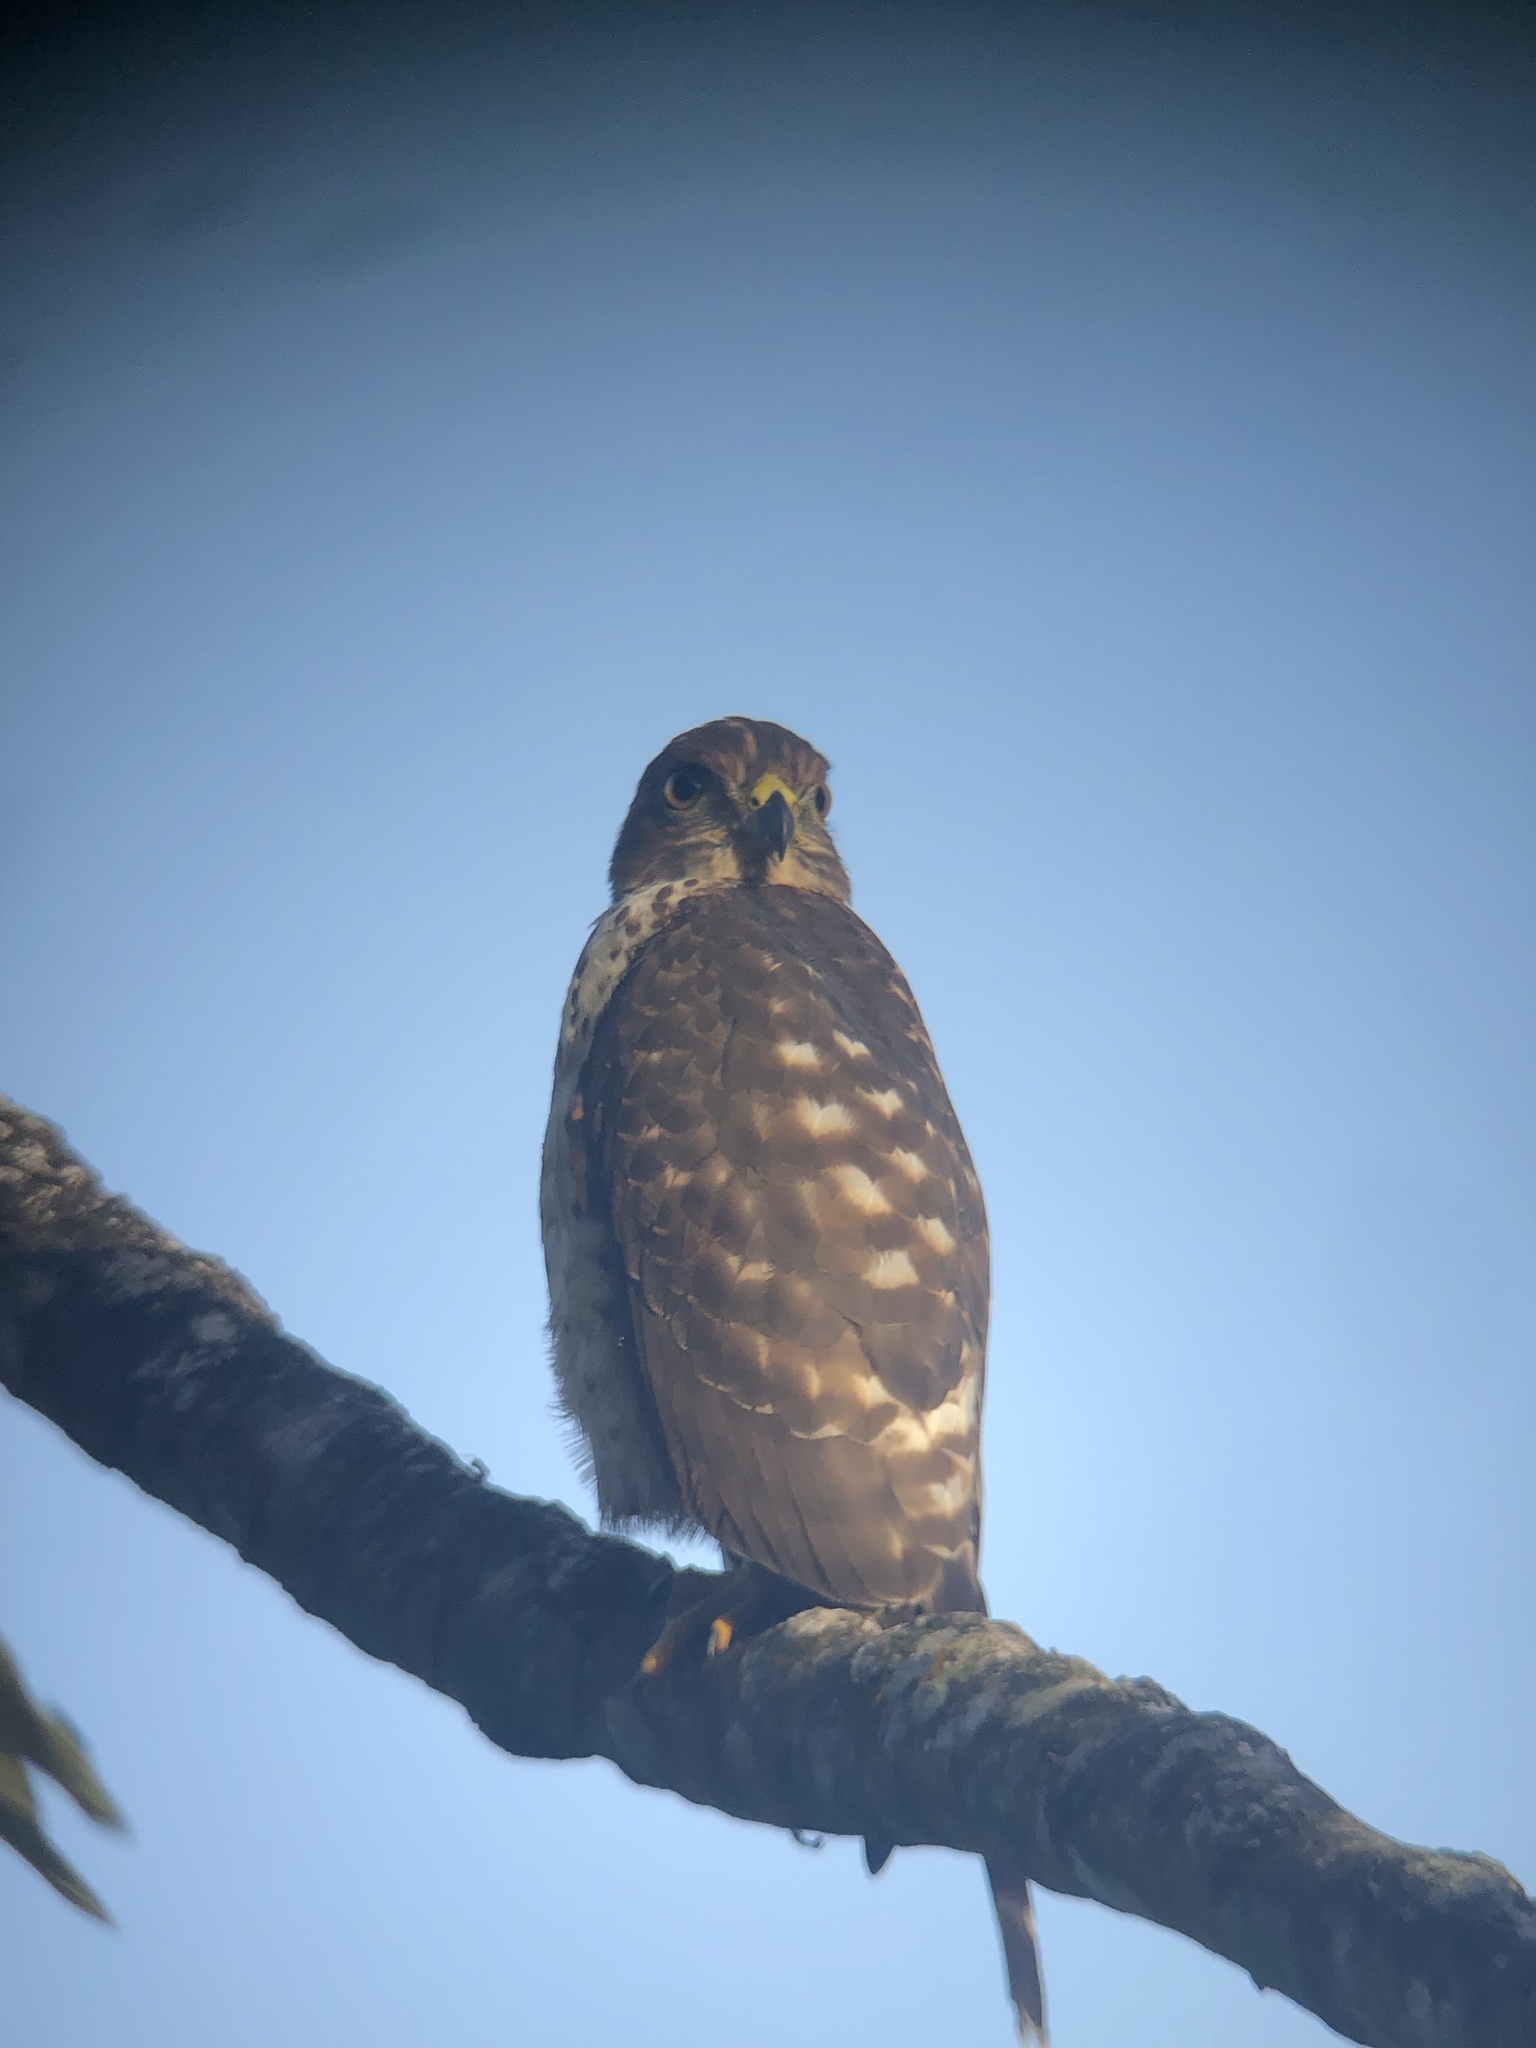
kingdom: Animalia
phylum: Chordata
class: Aves
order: Accipitriformes
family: Accipitridae
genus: Harpagus
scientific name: Harpagus bidentatus
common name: Double-toothed kite
